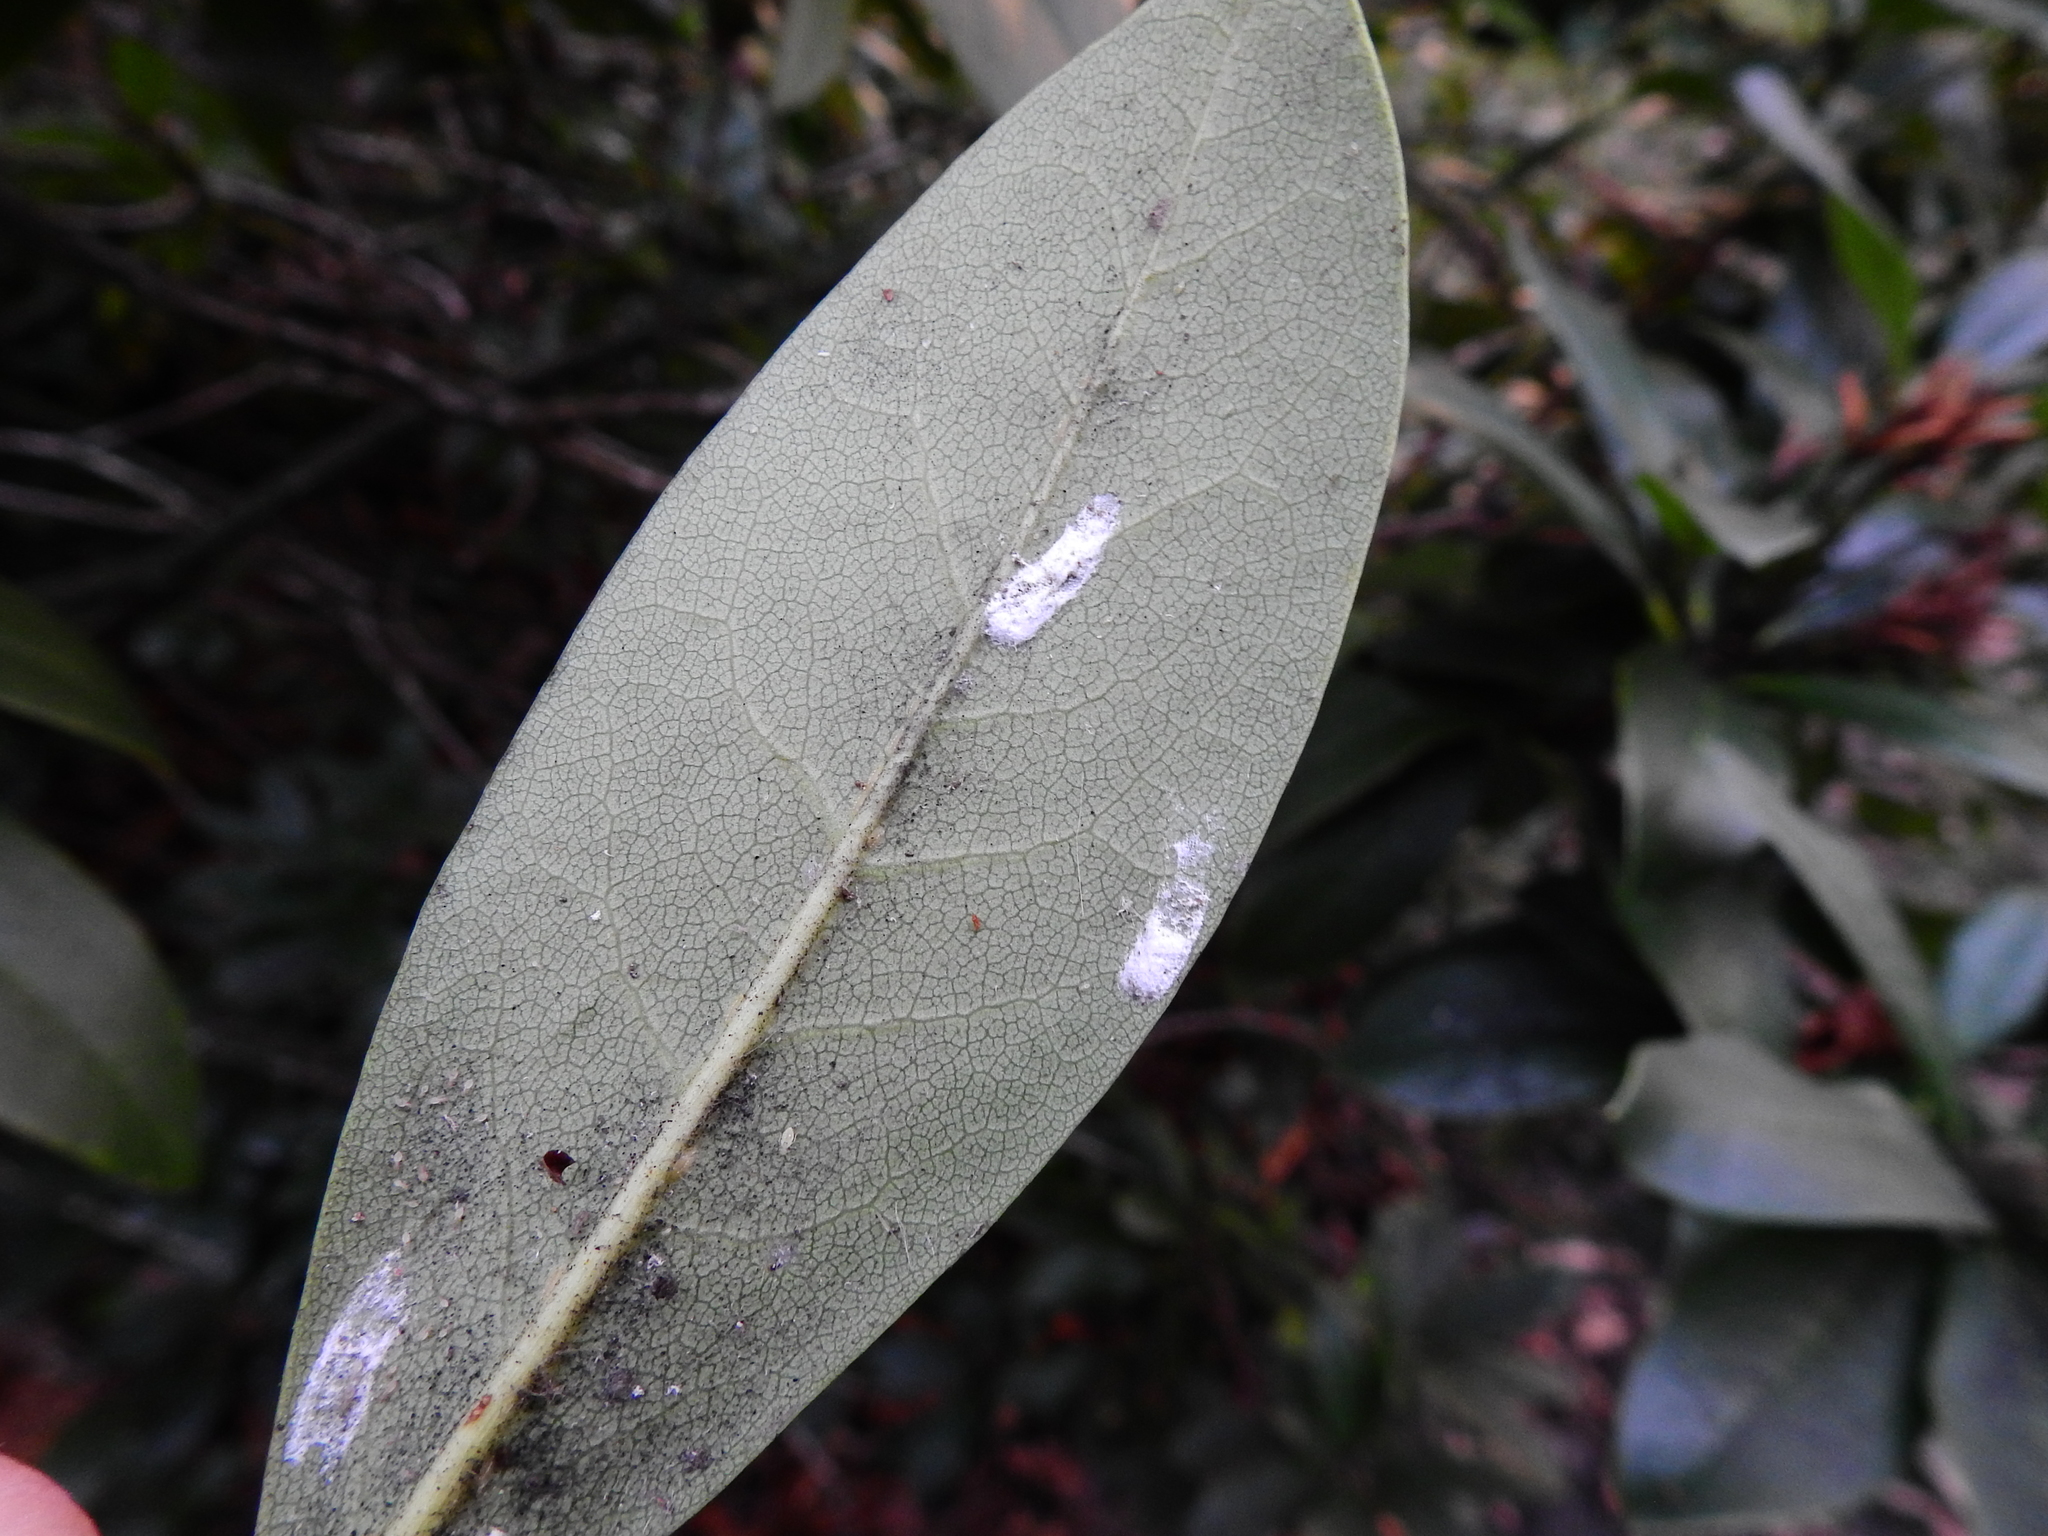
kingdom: Animalia
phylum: Arthropoda
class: Insecta
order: Hemiptera
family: Coccidae
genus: Pulvinaria
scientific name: Pulvinaria floccifera
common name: Cottony camellia scale
